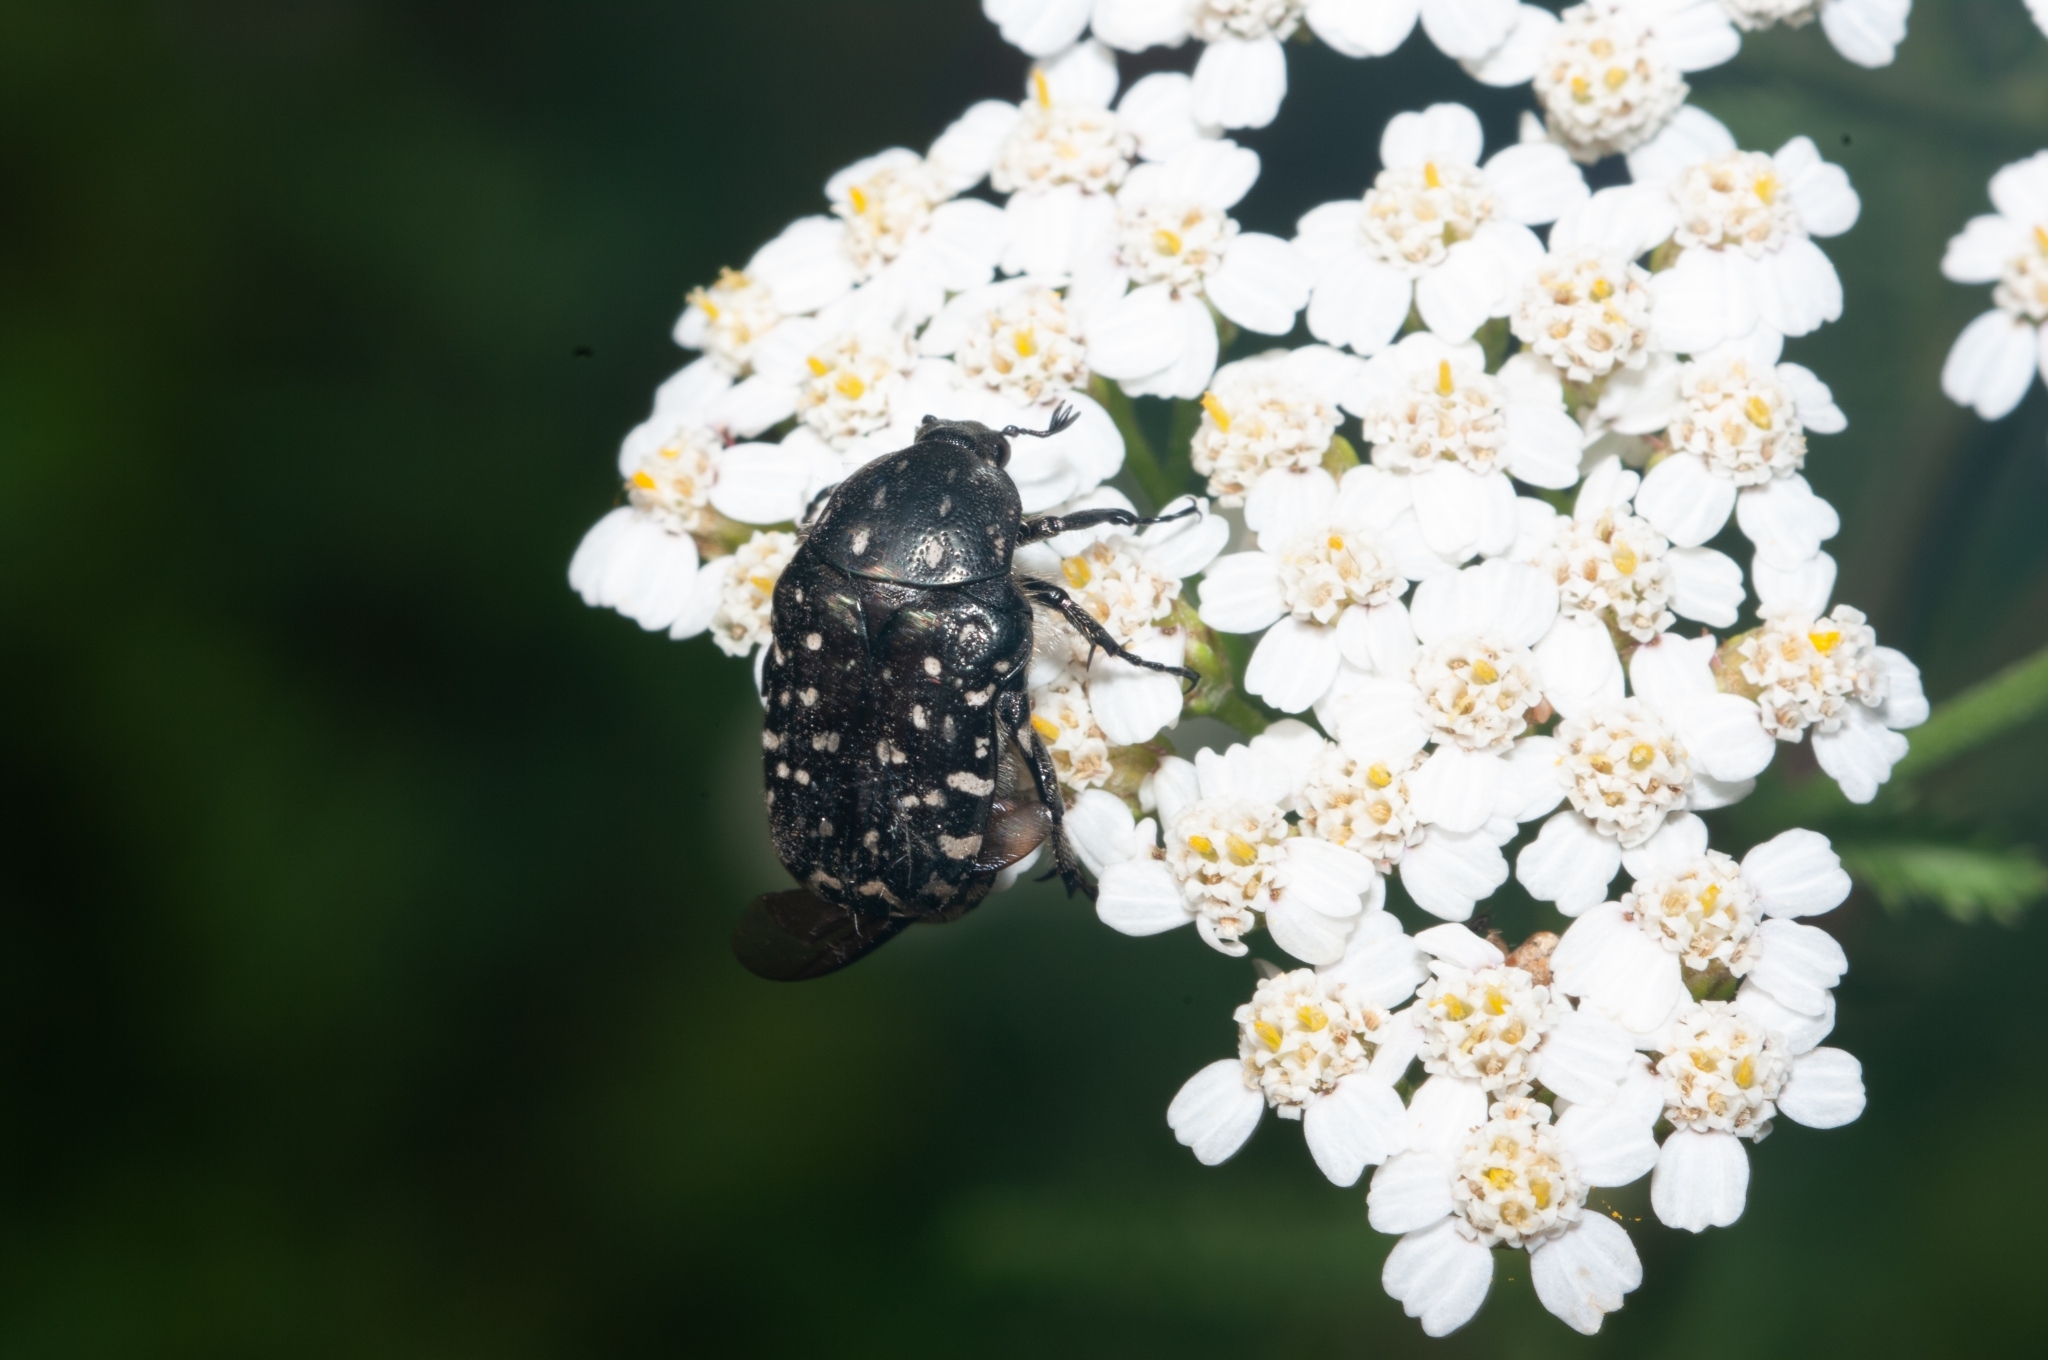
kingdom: Animalia
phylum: Arthropoda
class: Insecta
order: Coleoptera
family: Scarabaeidae
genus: Oxythyrea
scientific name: Oxythyrea funesta
